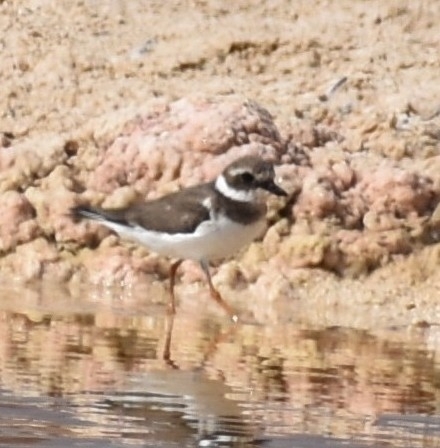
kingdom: Animalia
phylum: Chordata
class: Aves
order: Charadriiformes
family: Charadriidae
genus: Charadrius
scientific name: Charadrius hiaticula
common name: Common ringed plover
